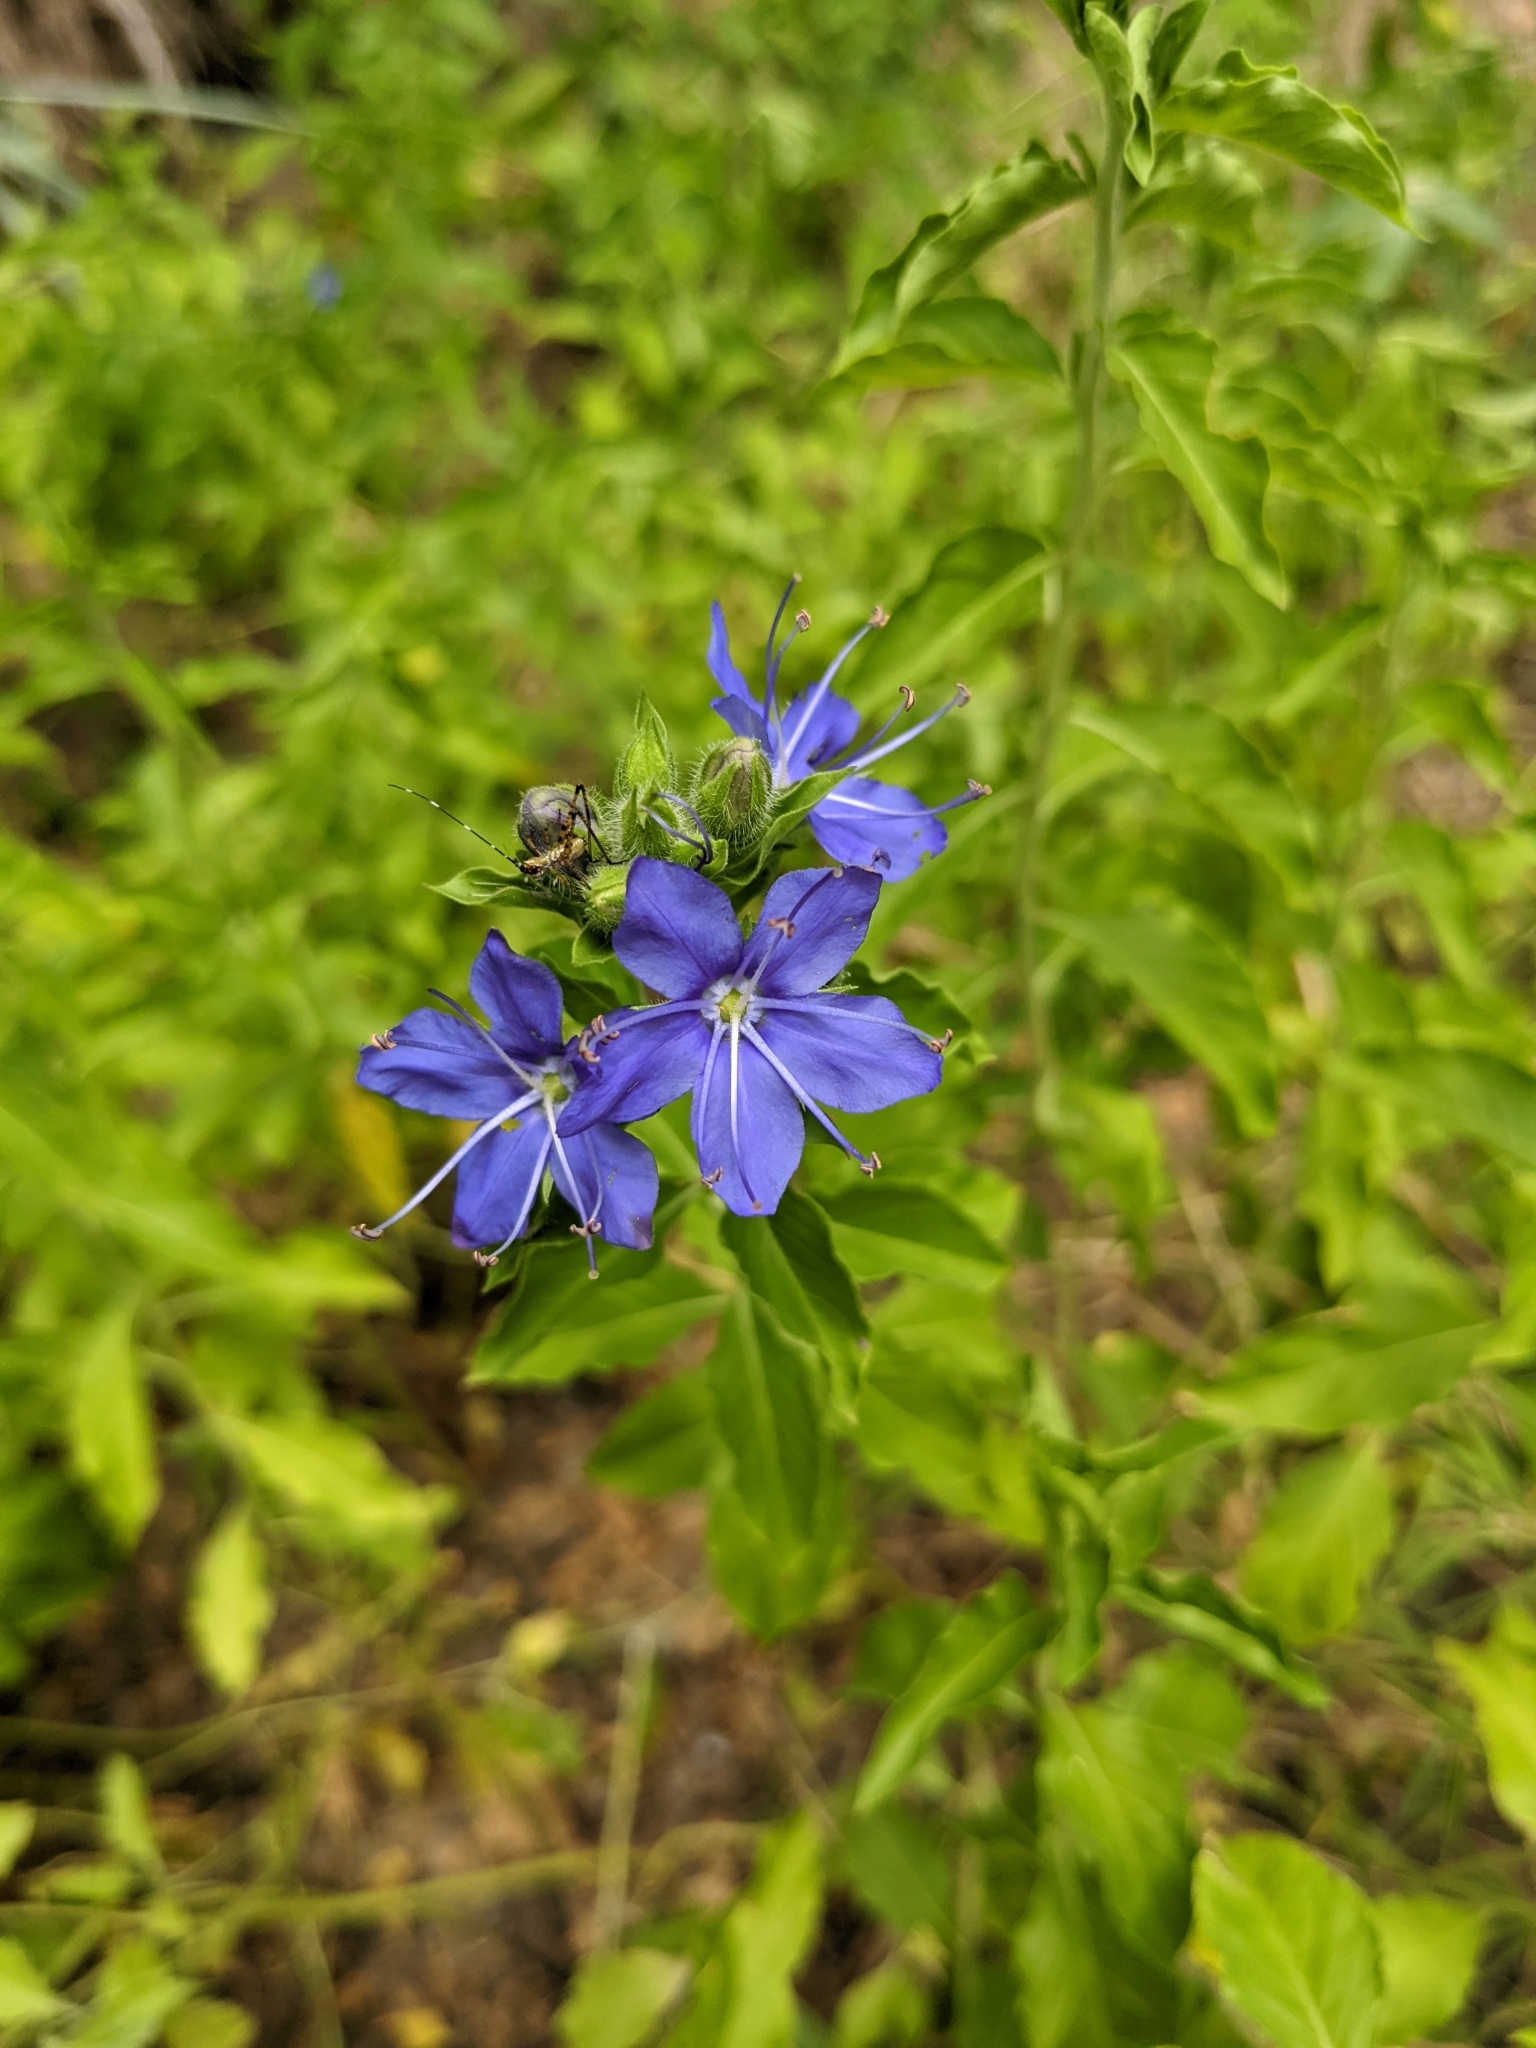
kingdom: Plantae
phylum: Tracheophyta
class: Magnoliopsida
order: Solanales
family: Hydroleaceae
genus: Hydrolea
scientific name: Hydrolea ovata
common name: Ovate false fiddleleaf
